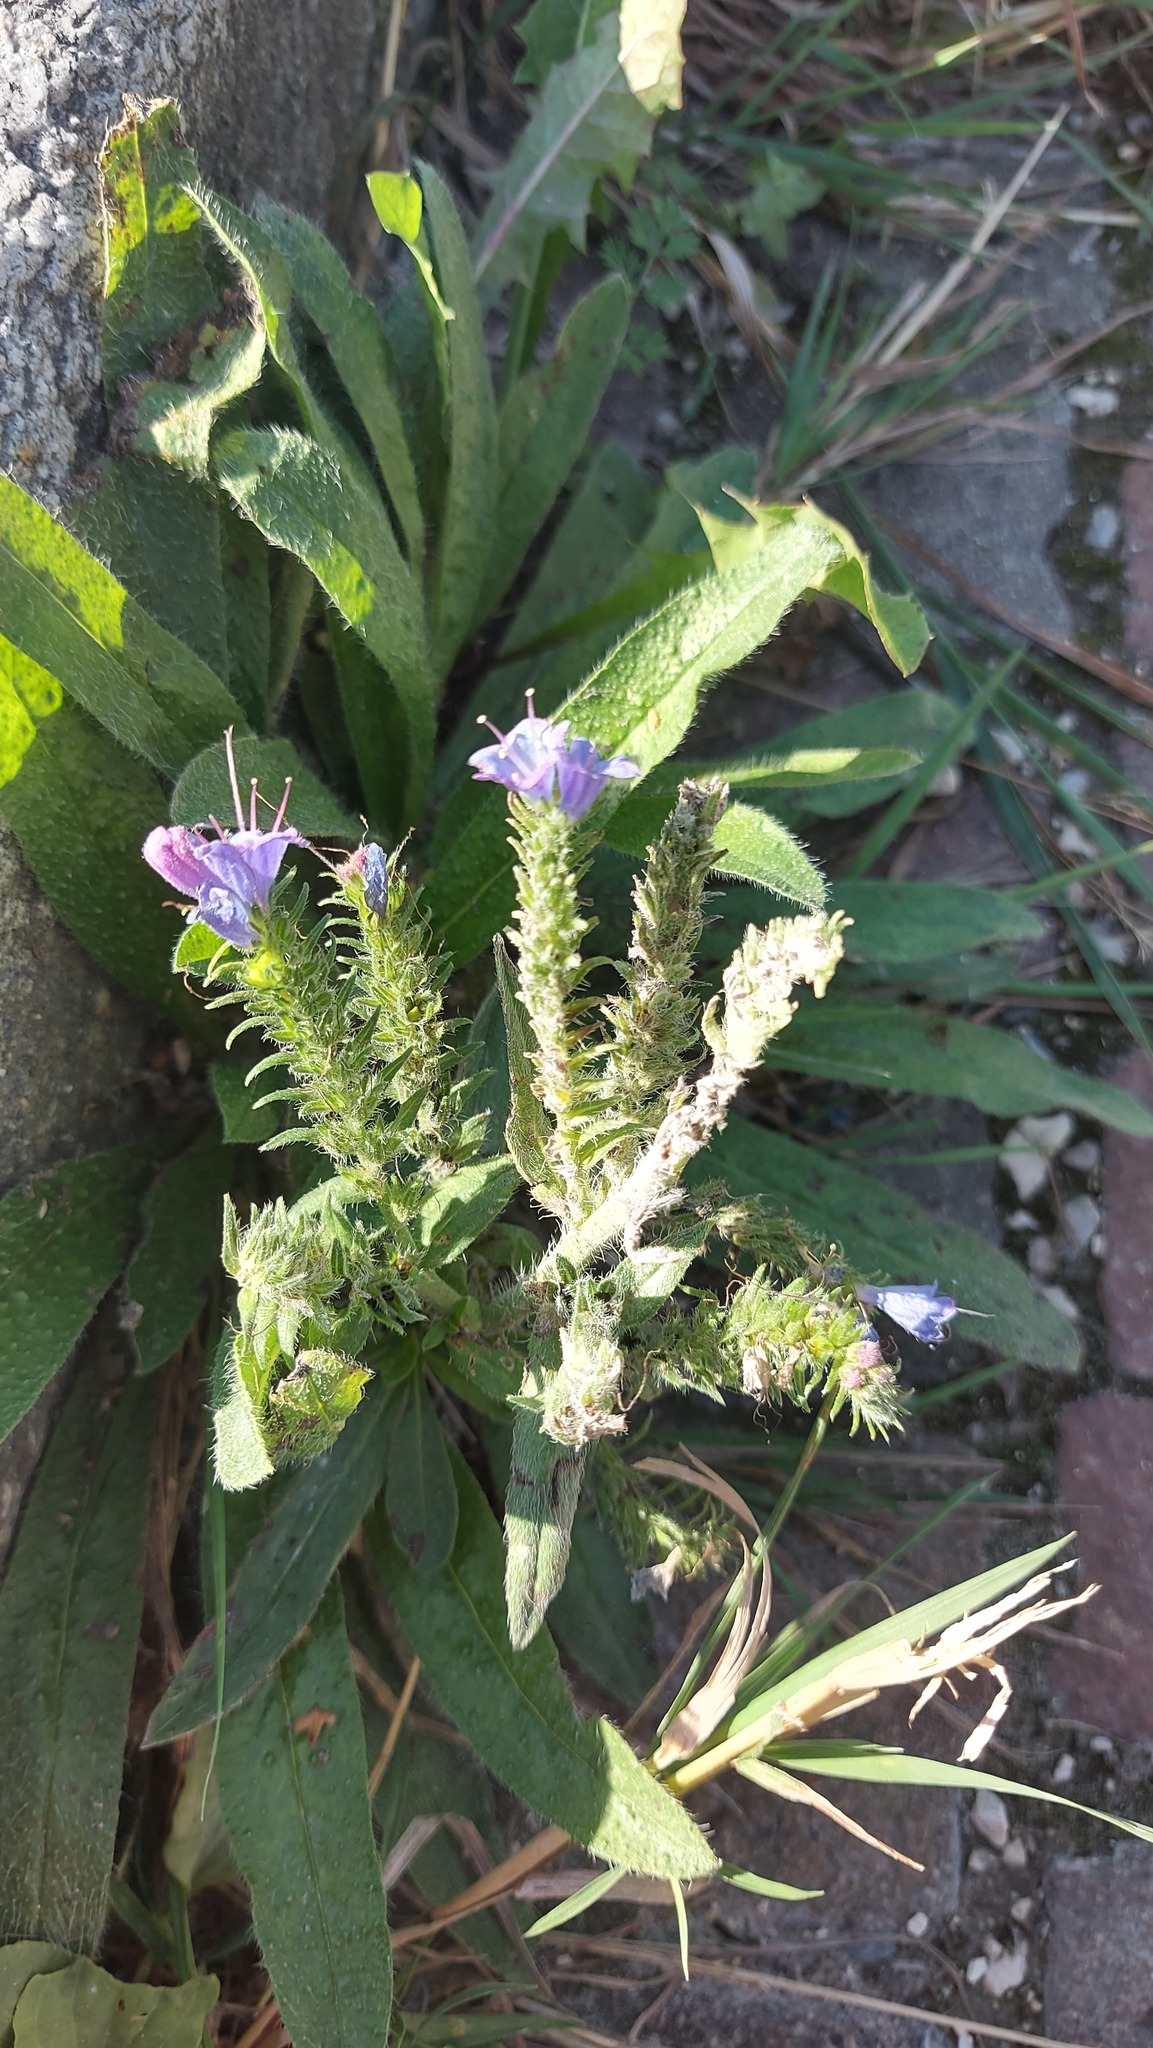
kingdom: Plantae
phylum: Tracheophyta
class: Magnoliopsida
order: Boraginales
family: Boraginaceae
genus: Echium
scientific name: Echium vulgare
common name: Common viper's bugloss
